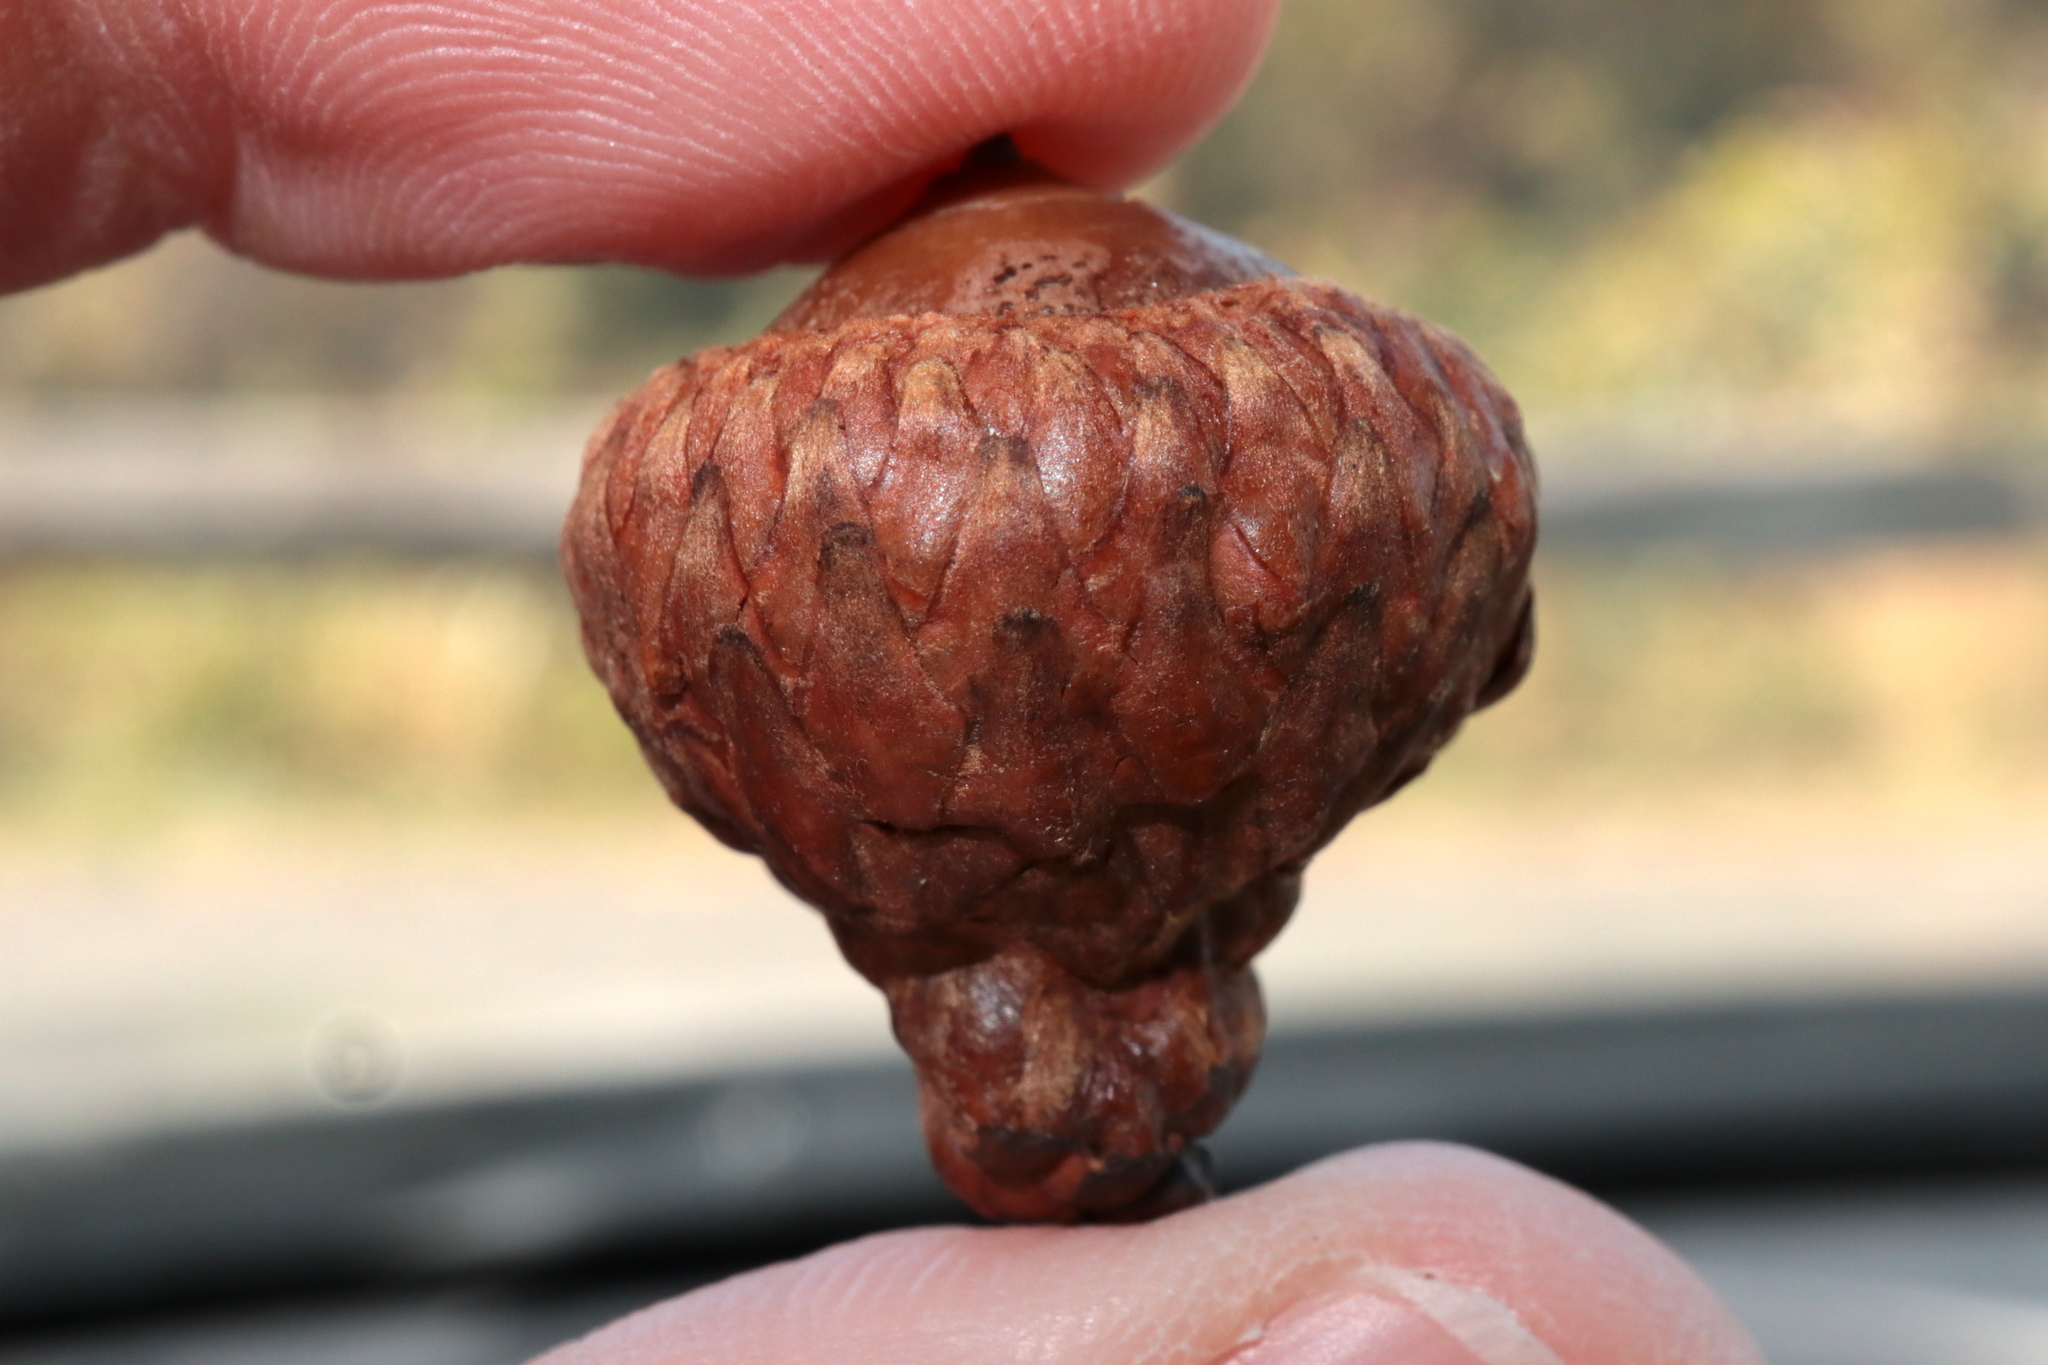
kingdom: Plantae
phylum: Tracheophyta
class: Magnoliopsida
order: Fagales
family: Fagaceae
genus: Quercus
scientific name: Quercus coccinea
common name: Scarlet oak
